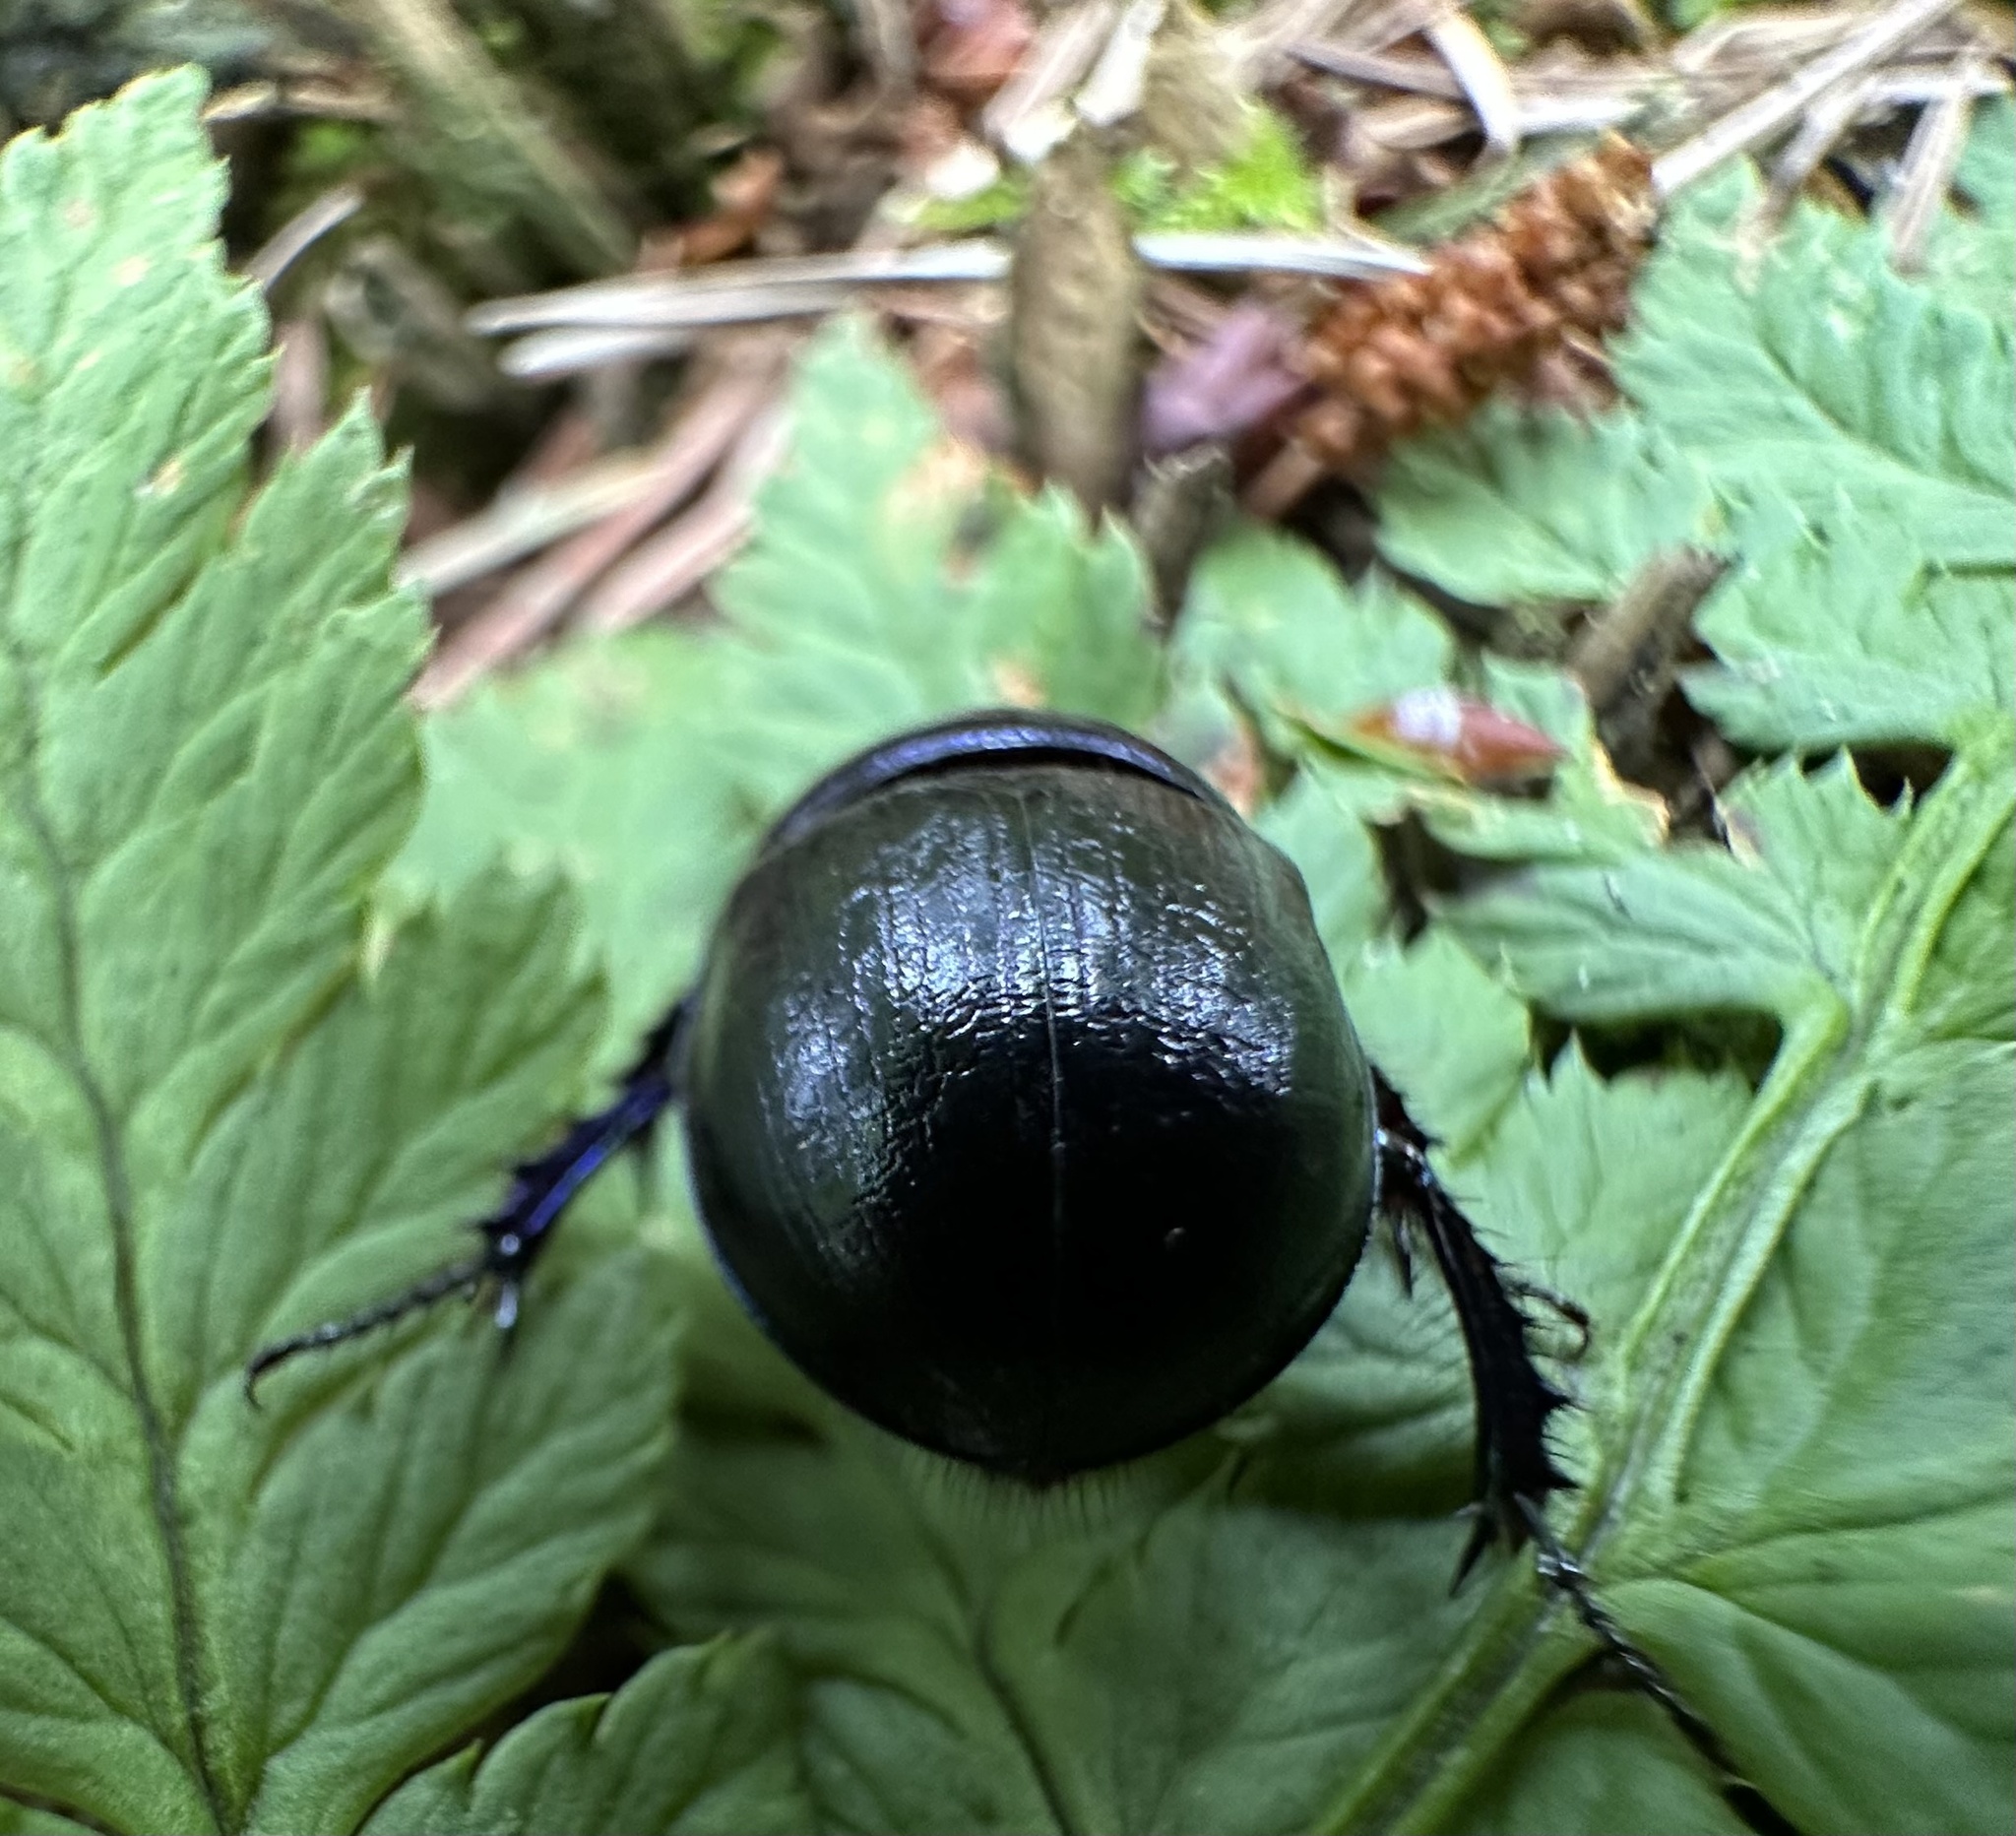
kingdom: Animalia
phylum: Arthropoda
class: Insecta
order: Coleoptera
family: Geotrupidae
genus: Anoplotrupes
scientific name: Anoplotrupes stercorosus
